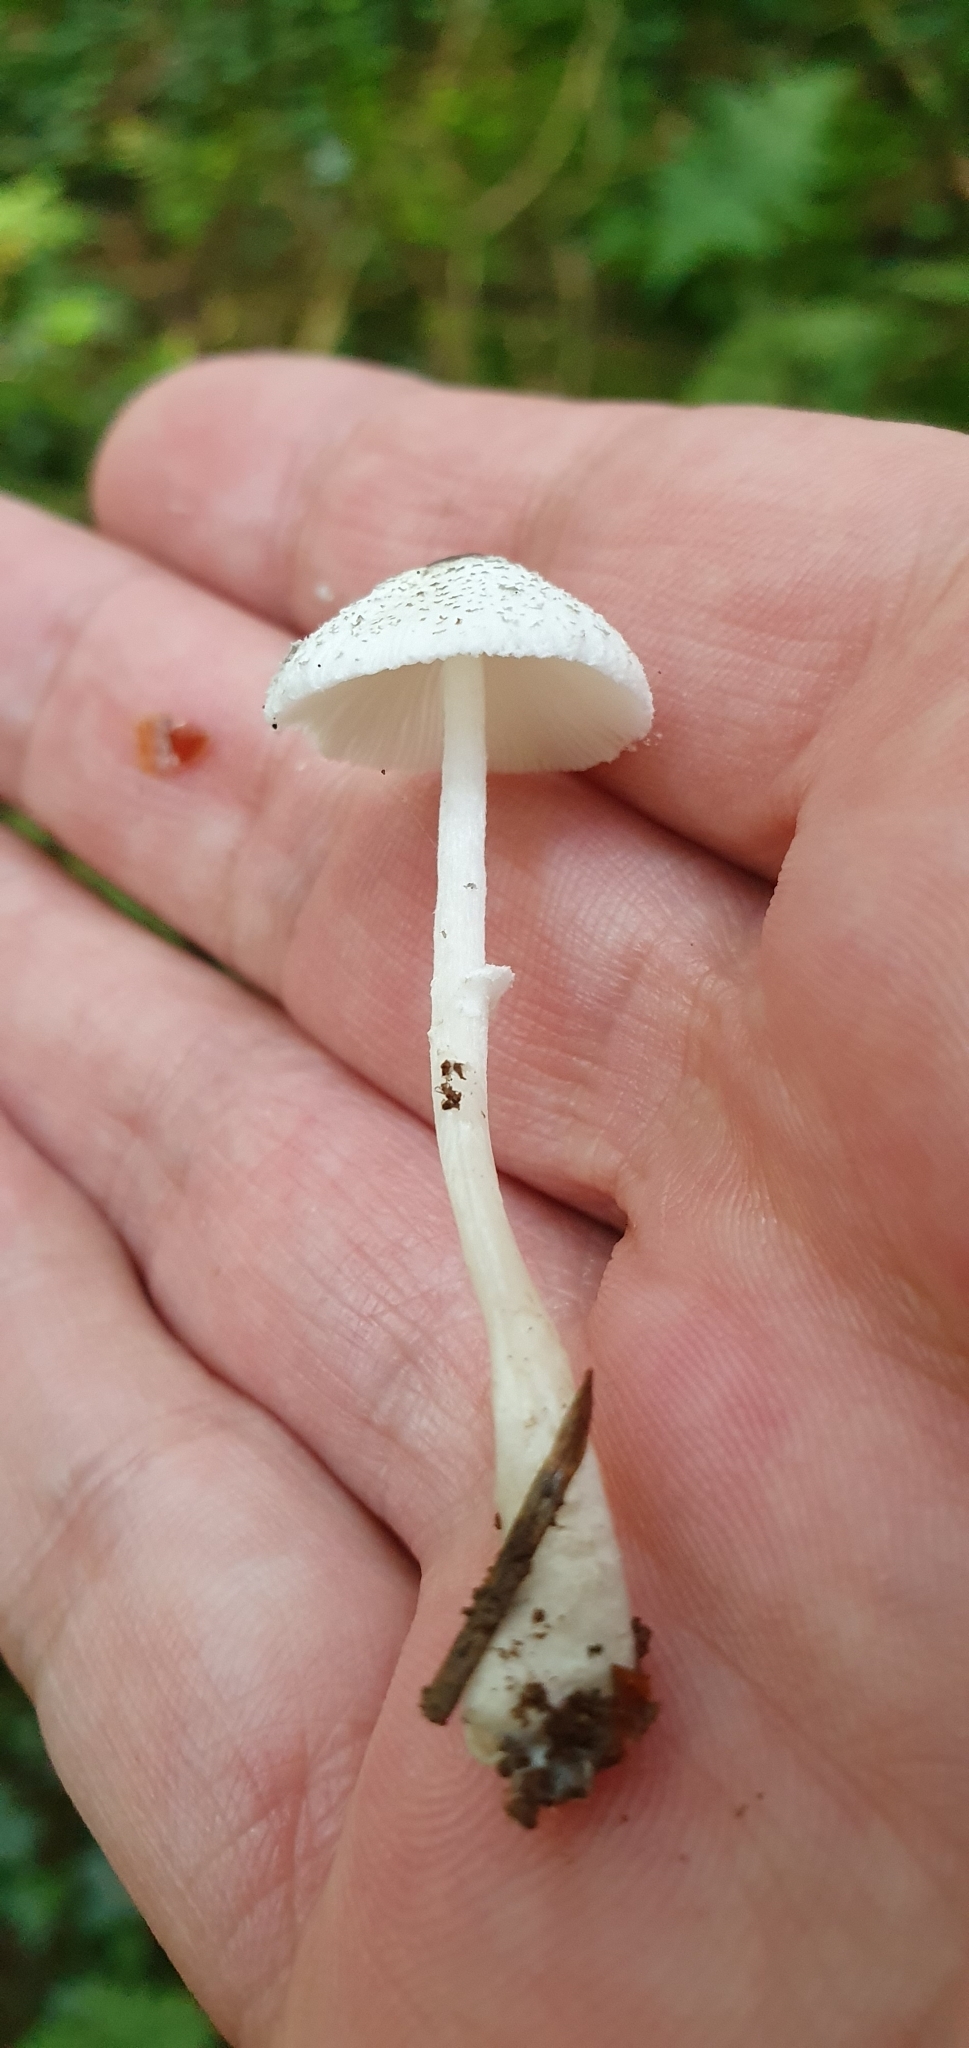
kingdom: Fungi
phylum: Basidiomycota
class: Agaricomycetes
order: Agaricales
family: Agaricaceae
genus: Leucocoprinus
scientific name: Leucocoprinus brebissonii
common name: Skullcap dapperling
